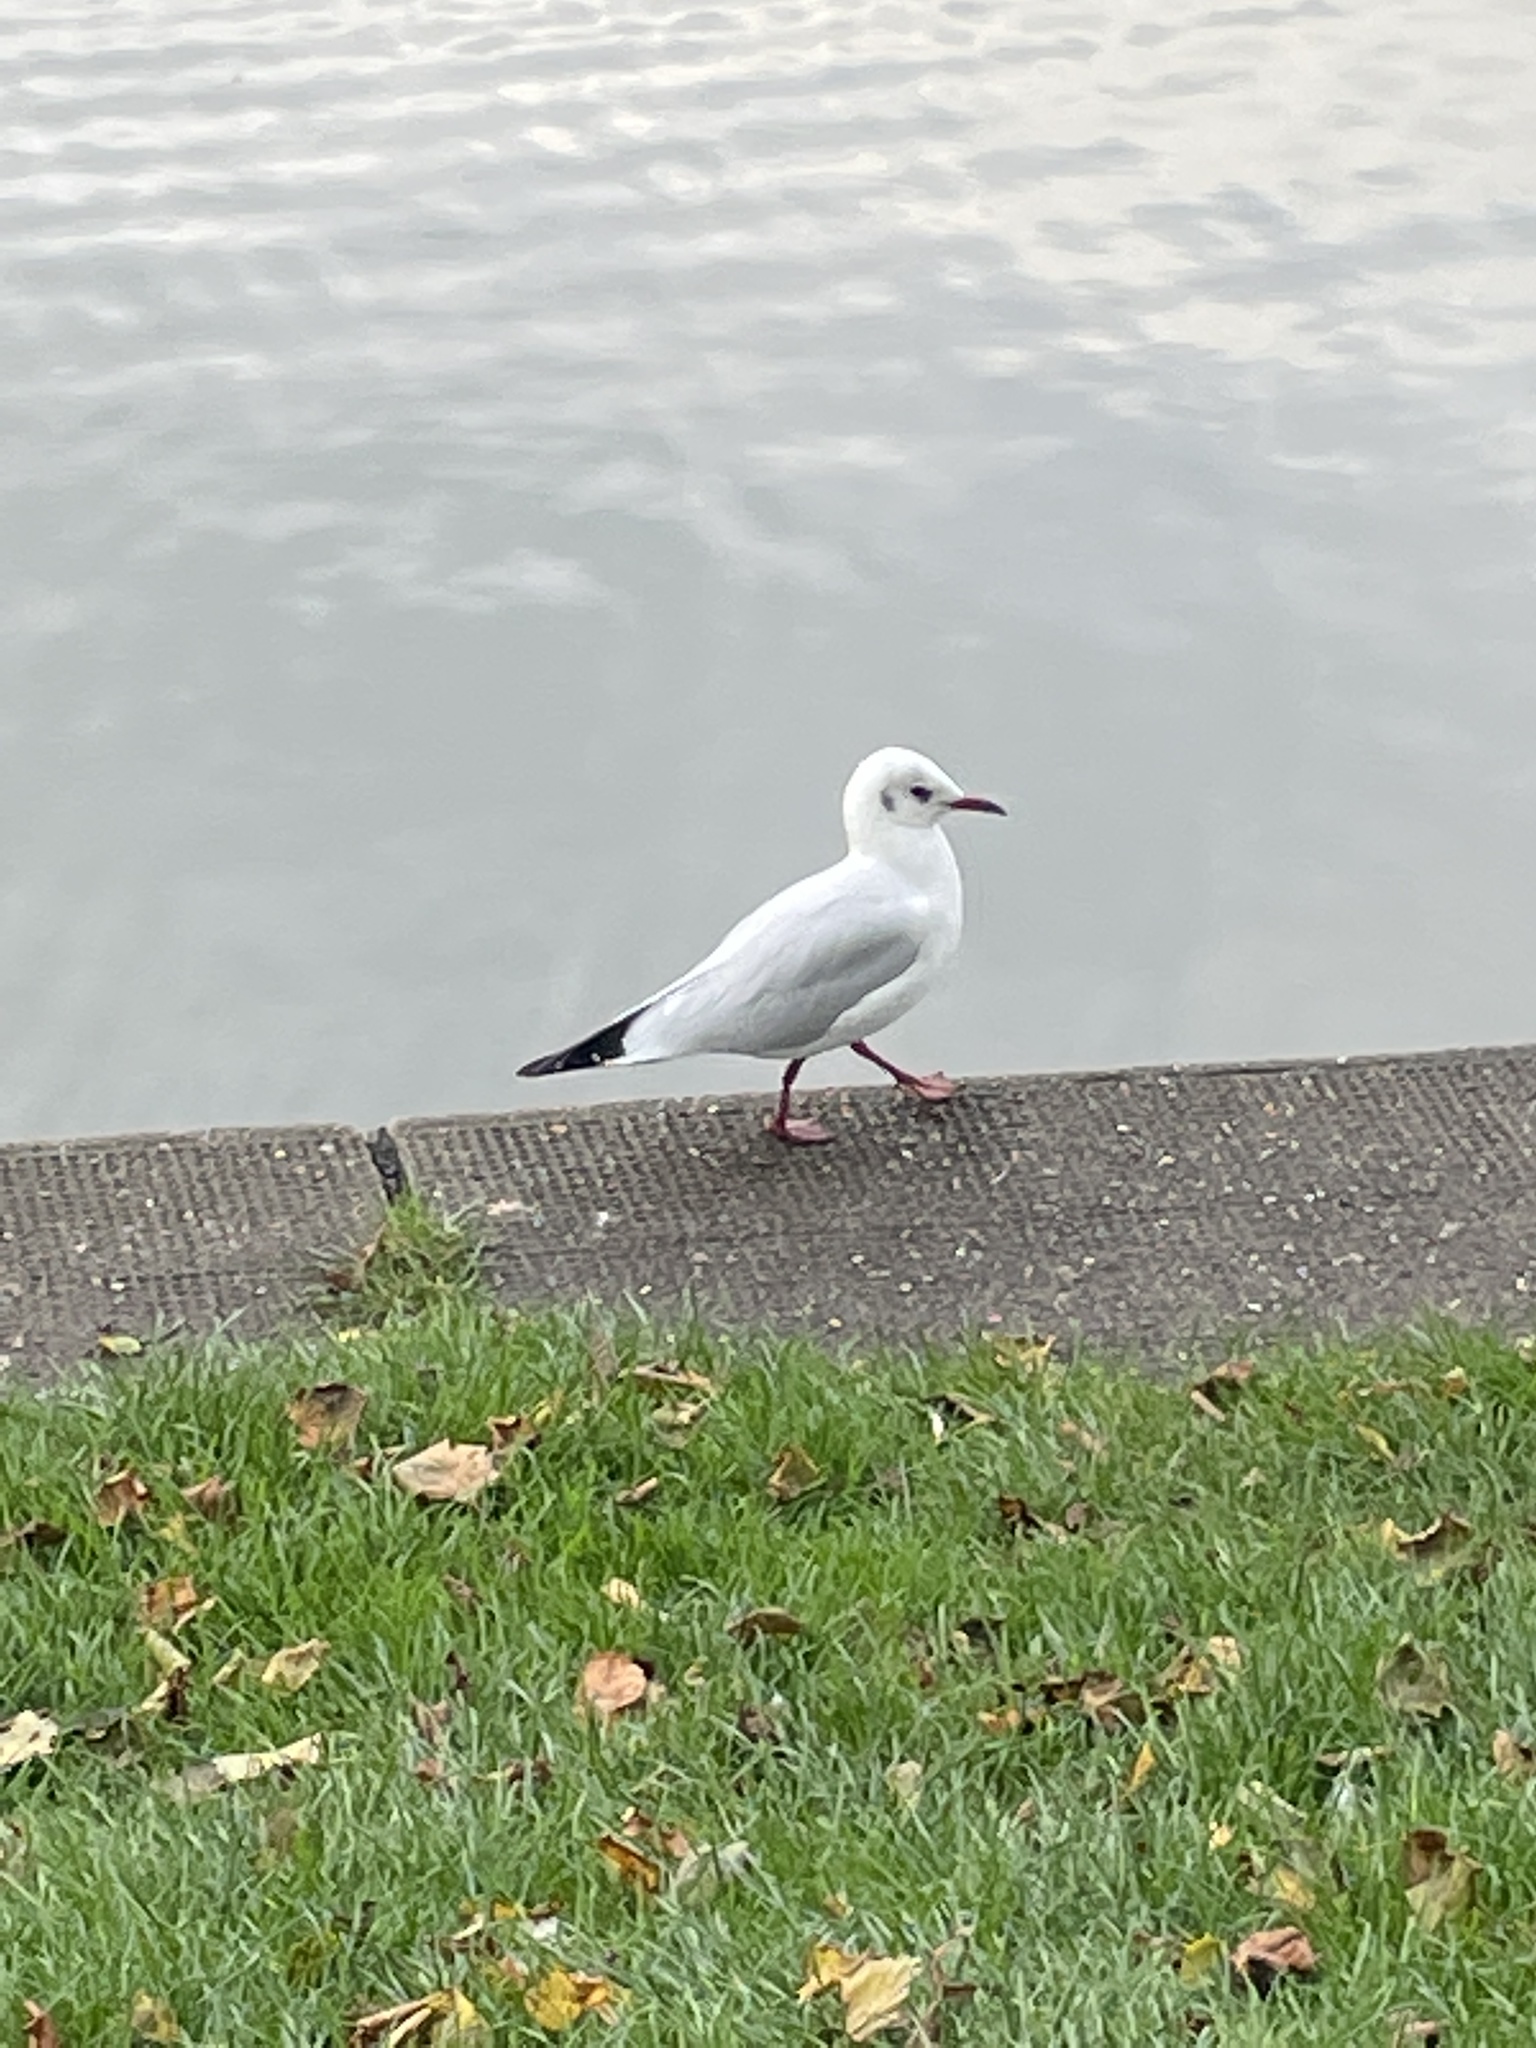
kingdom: Animalia
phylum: Chordata
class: Aves
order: Charadriiformes
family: Laridae
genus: Chroicocephalus
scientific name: Chroicocephalus ridibundus
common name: Black-headed gull
